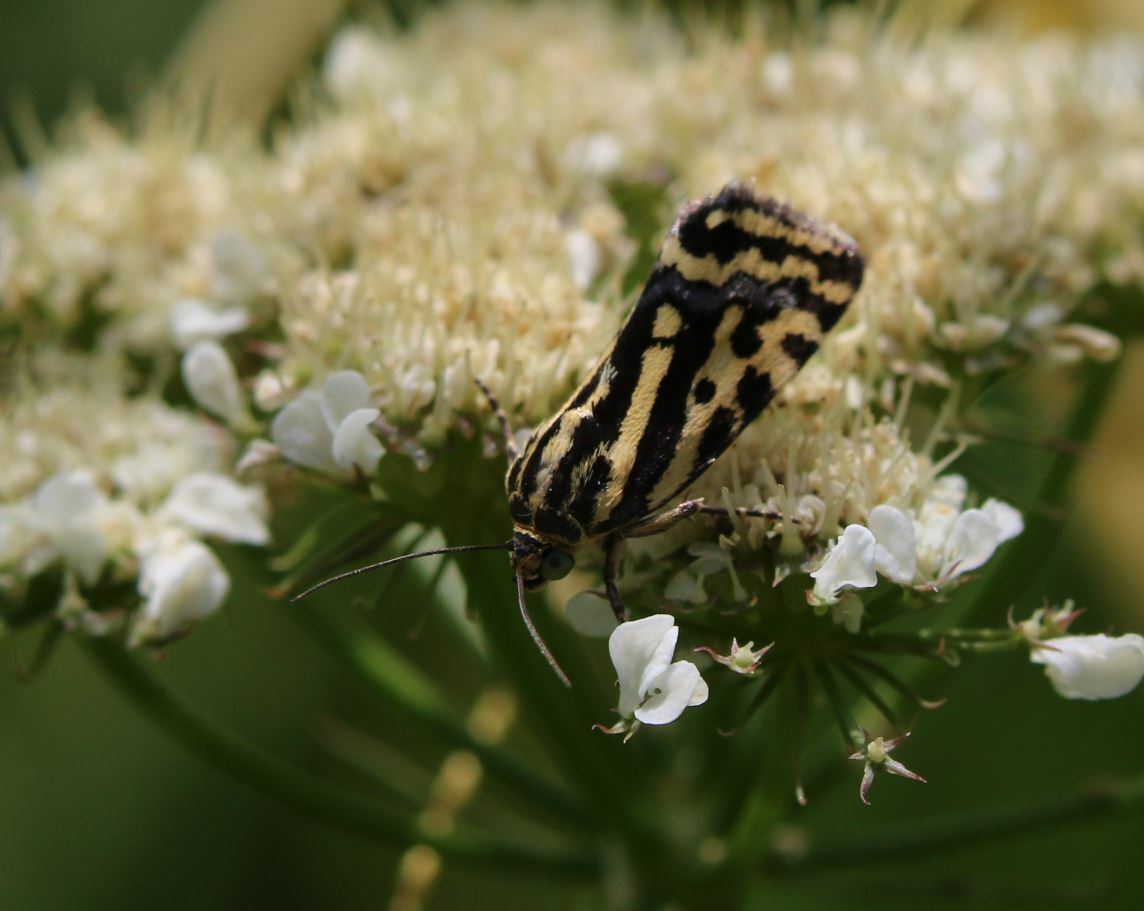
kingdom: Animalia
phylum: Arthropoda
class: Insecta
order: Lepidoptera
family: Noctuidae
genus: Acontia
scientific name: Acontia trabealis
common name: Spotted sulphur
